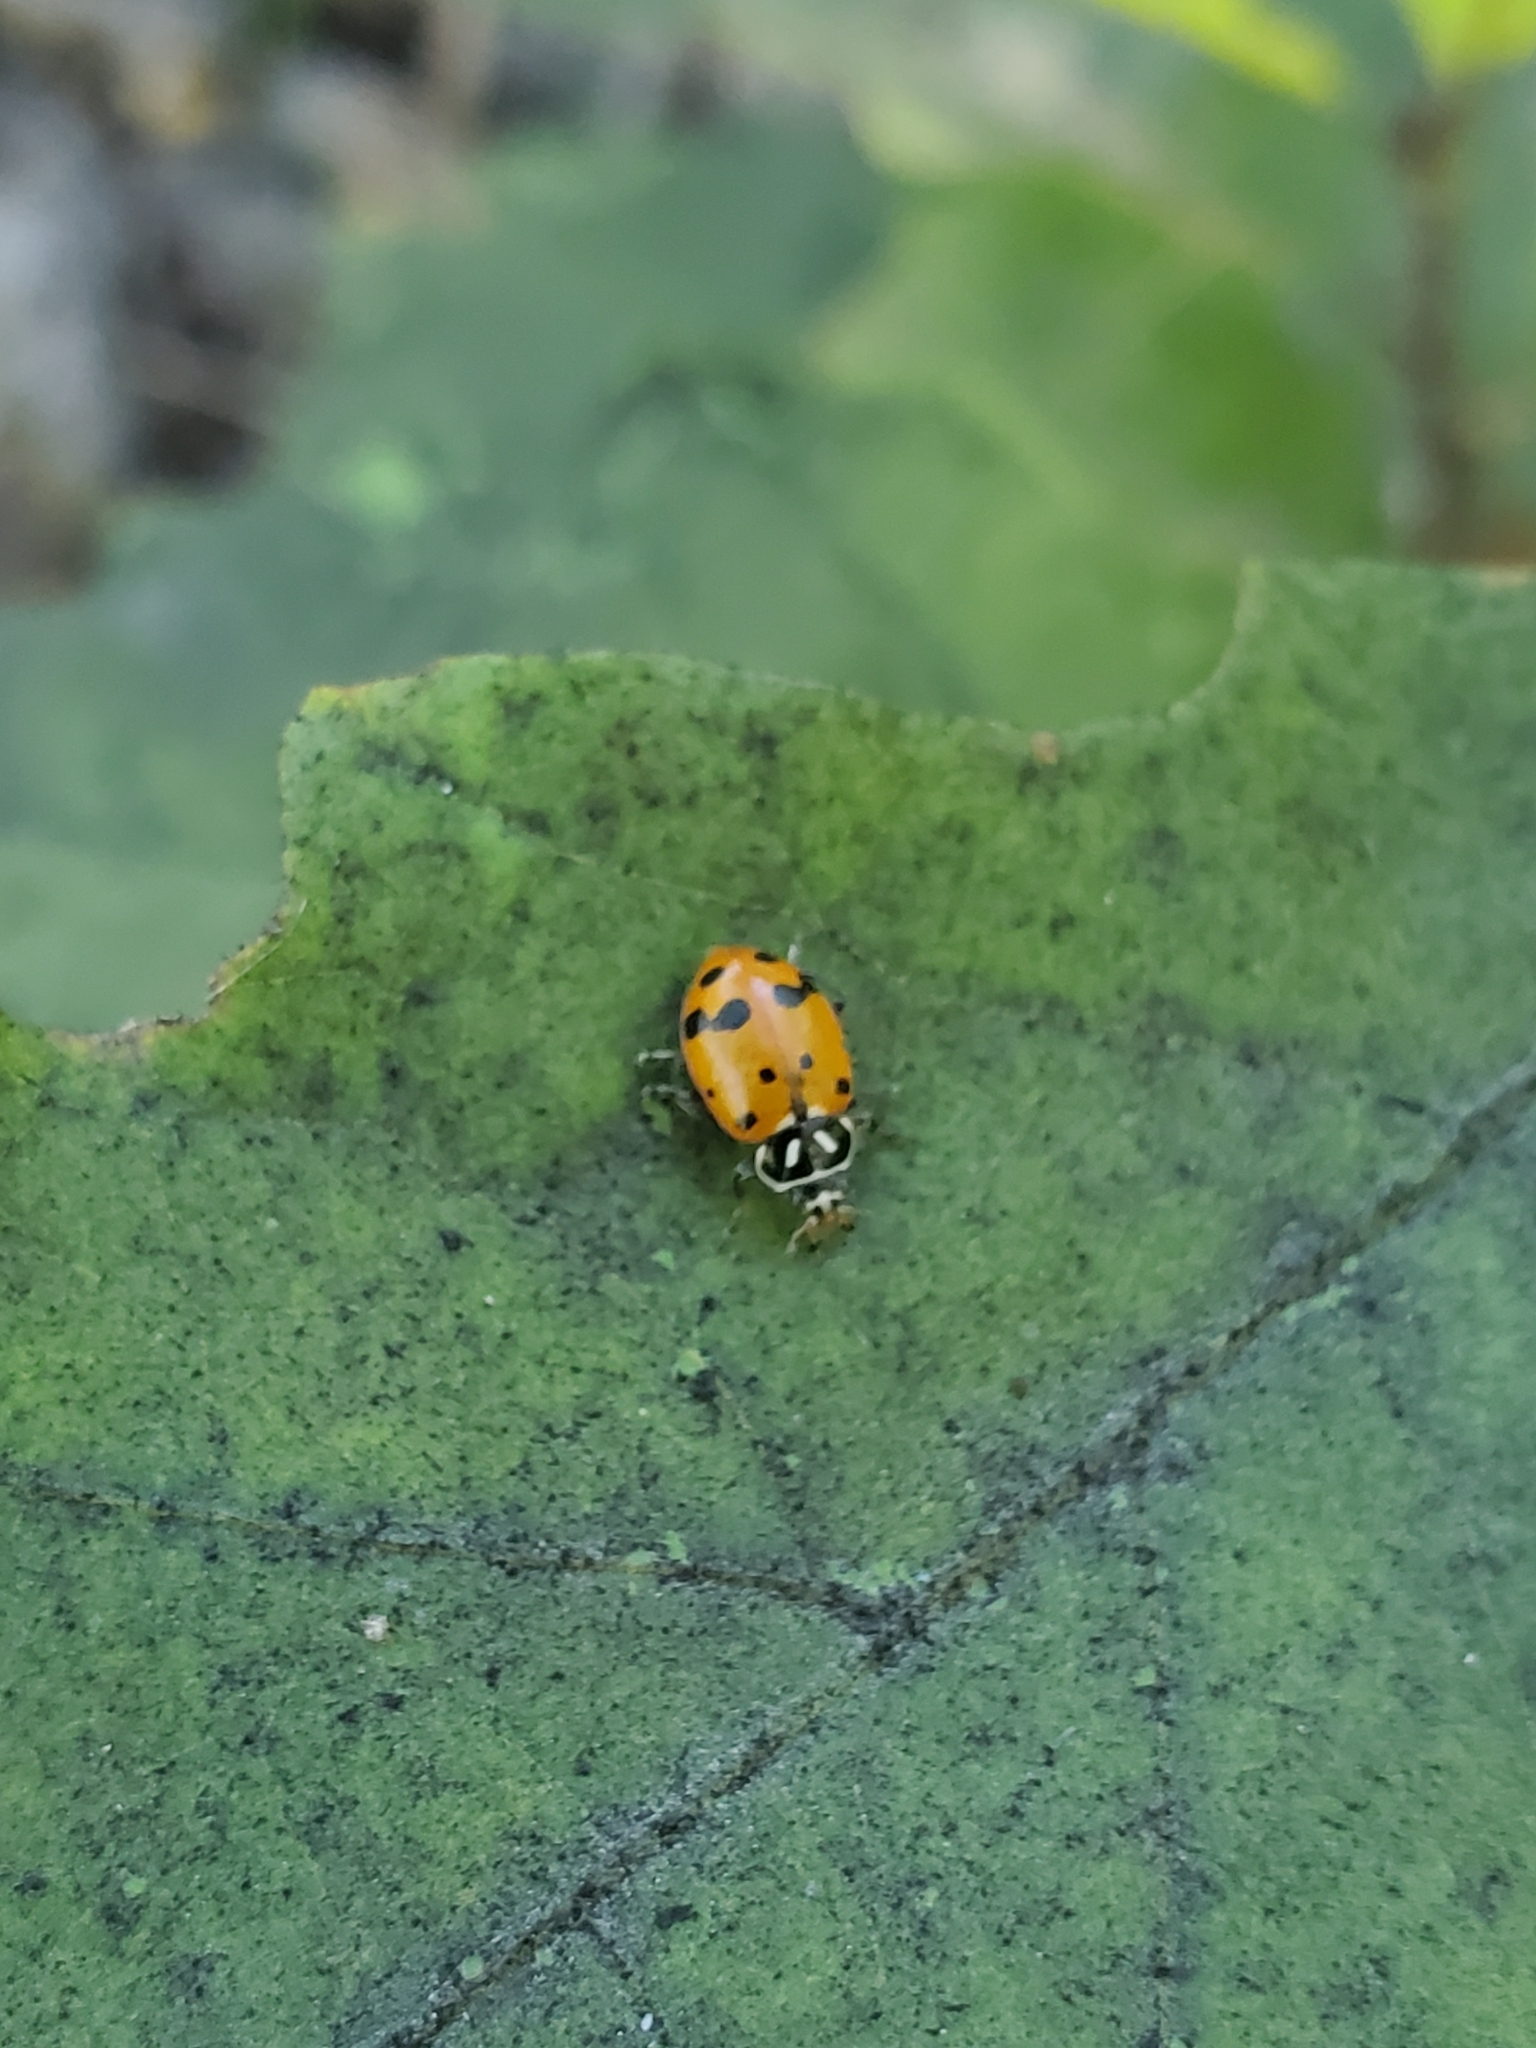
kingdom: Animalia
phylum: Arthropoda
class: Insecta
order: Coleoptera
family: Coccinellidae
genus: Hippodamia
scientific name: Hippodamia convergens
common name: Convergent lady beetle
